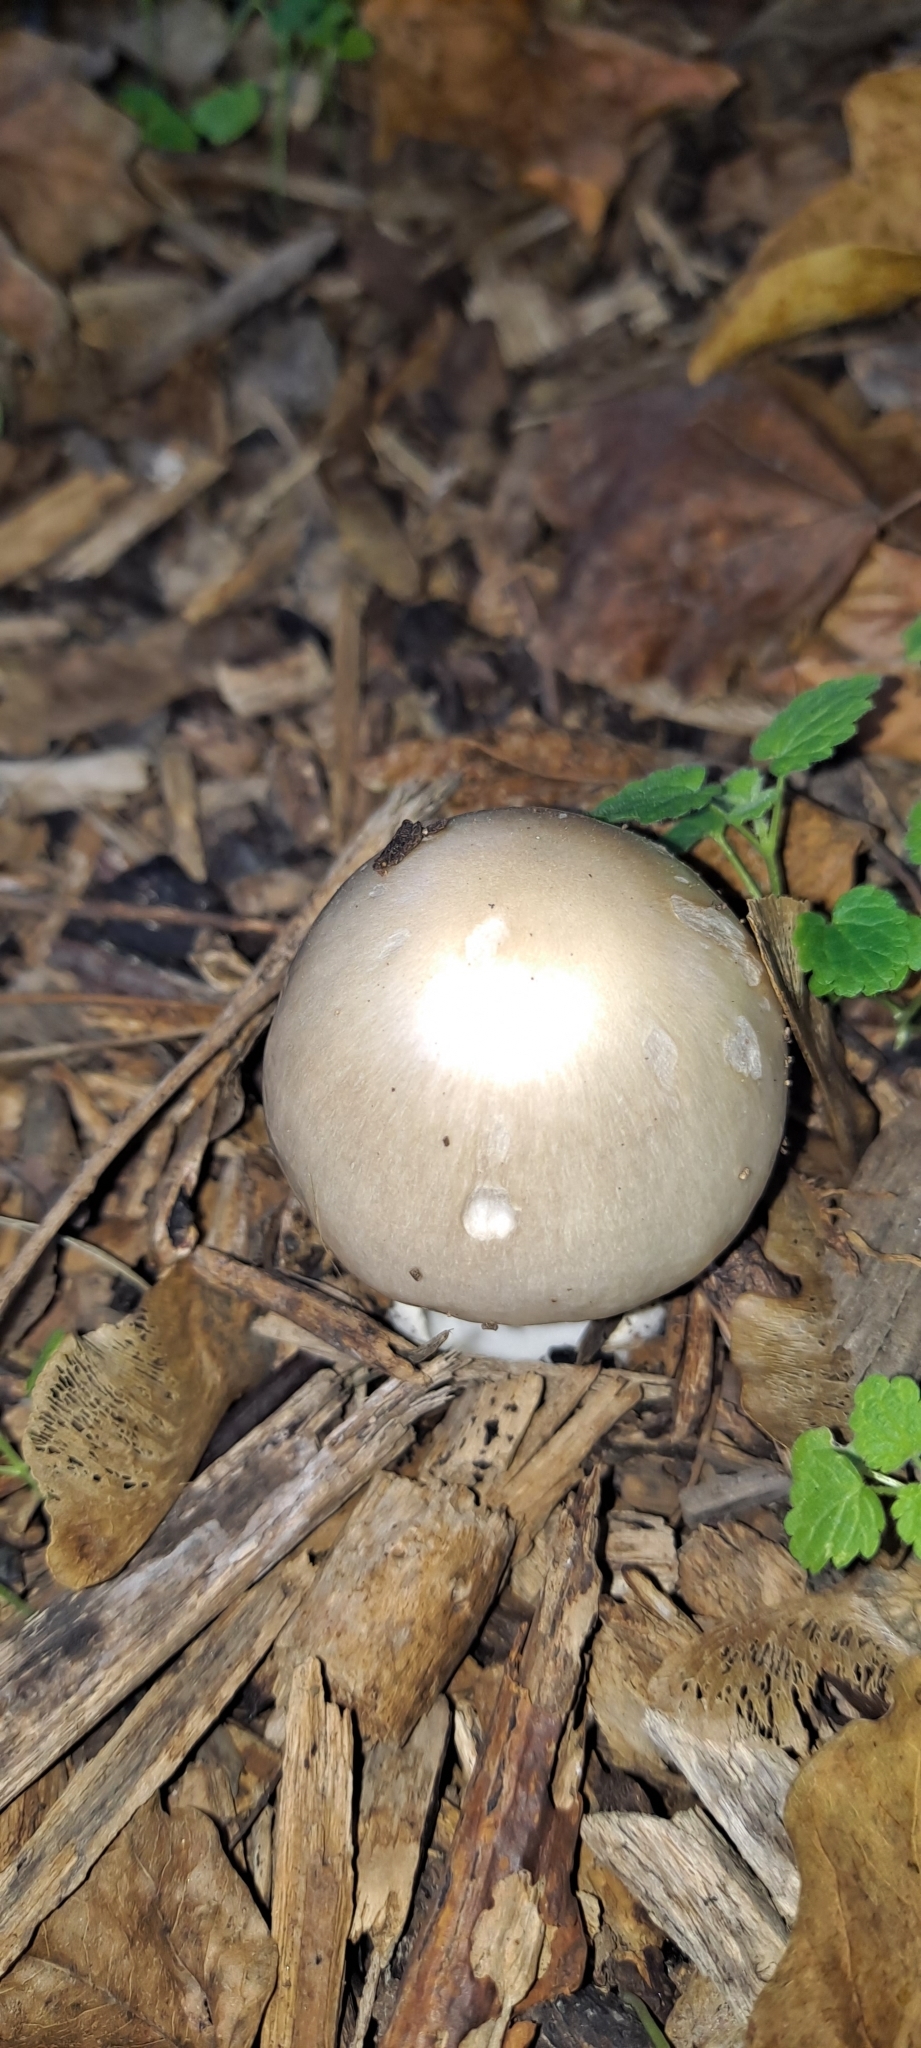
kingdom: Fungi
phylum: Basidiomycota
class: Agaricomycetes
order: Agaricales
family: Pluteaceae
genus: Volvopluteus
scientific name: Volvopluteus gloiocephalus
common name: Stubble rosegill
